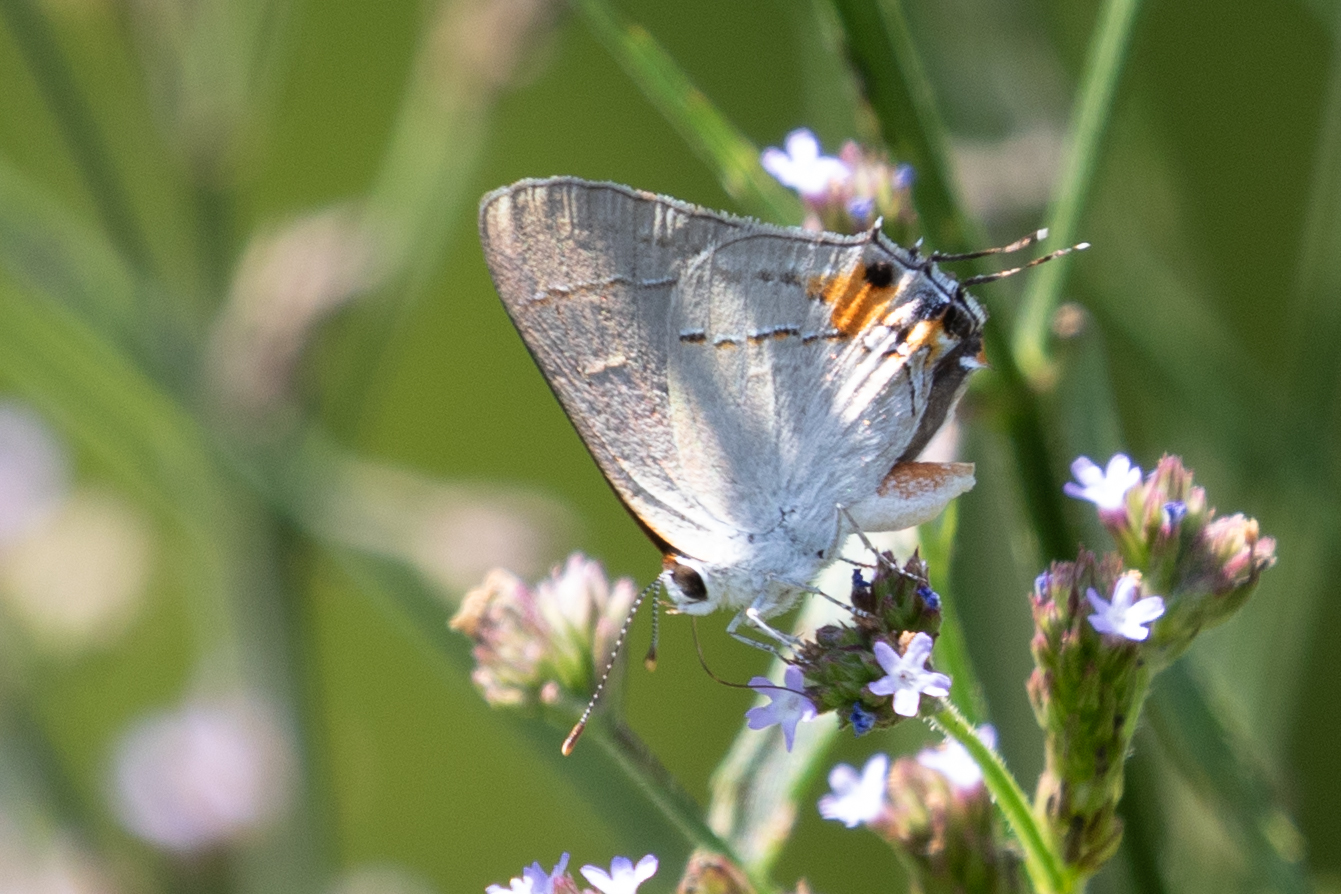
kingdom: Animalia
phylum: Arthropoda
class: Insecta
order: Lepidoptera
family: Lycaenidae
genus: Strymon
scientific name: Strymon melinus
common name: Gray hairstreak
